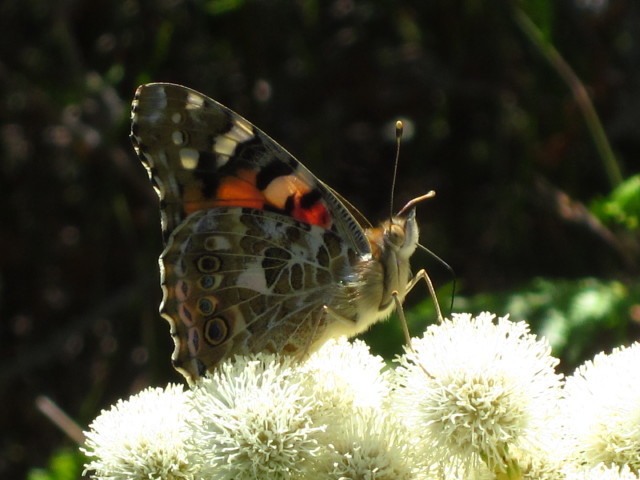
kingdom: Plantae
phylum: Tracheophyta
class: Magnoliopsida
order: Bruniales
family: Bruniaceae
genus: Berzelia
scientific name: Berzelia abrotanoides
